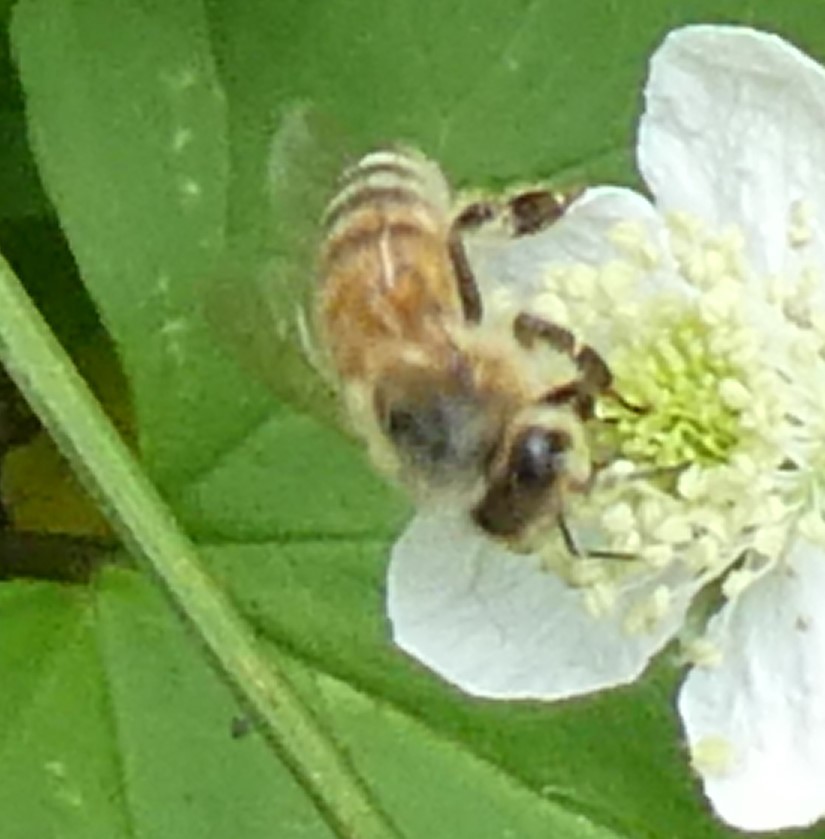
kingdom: Animalia
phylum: Arthropoda
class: Insecta
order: Hymenoptera
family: Apidae
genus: Apis
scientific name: Apis mellifera
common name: Honey bee
